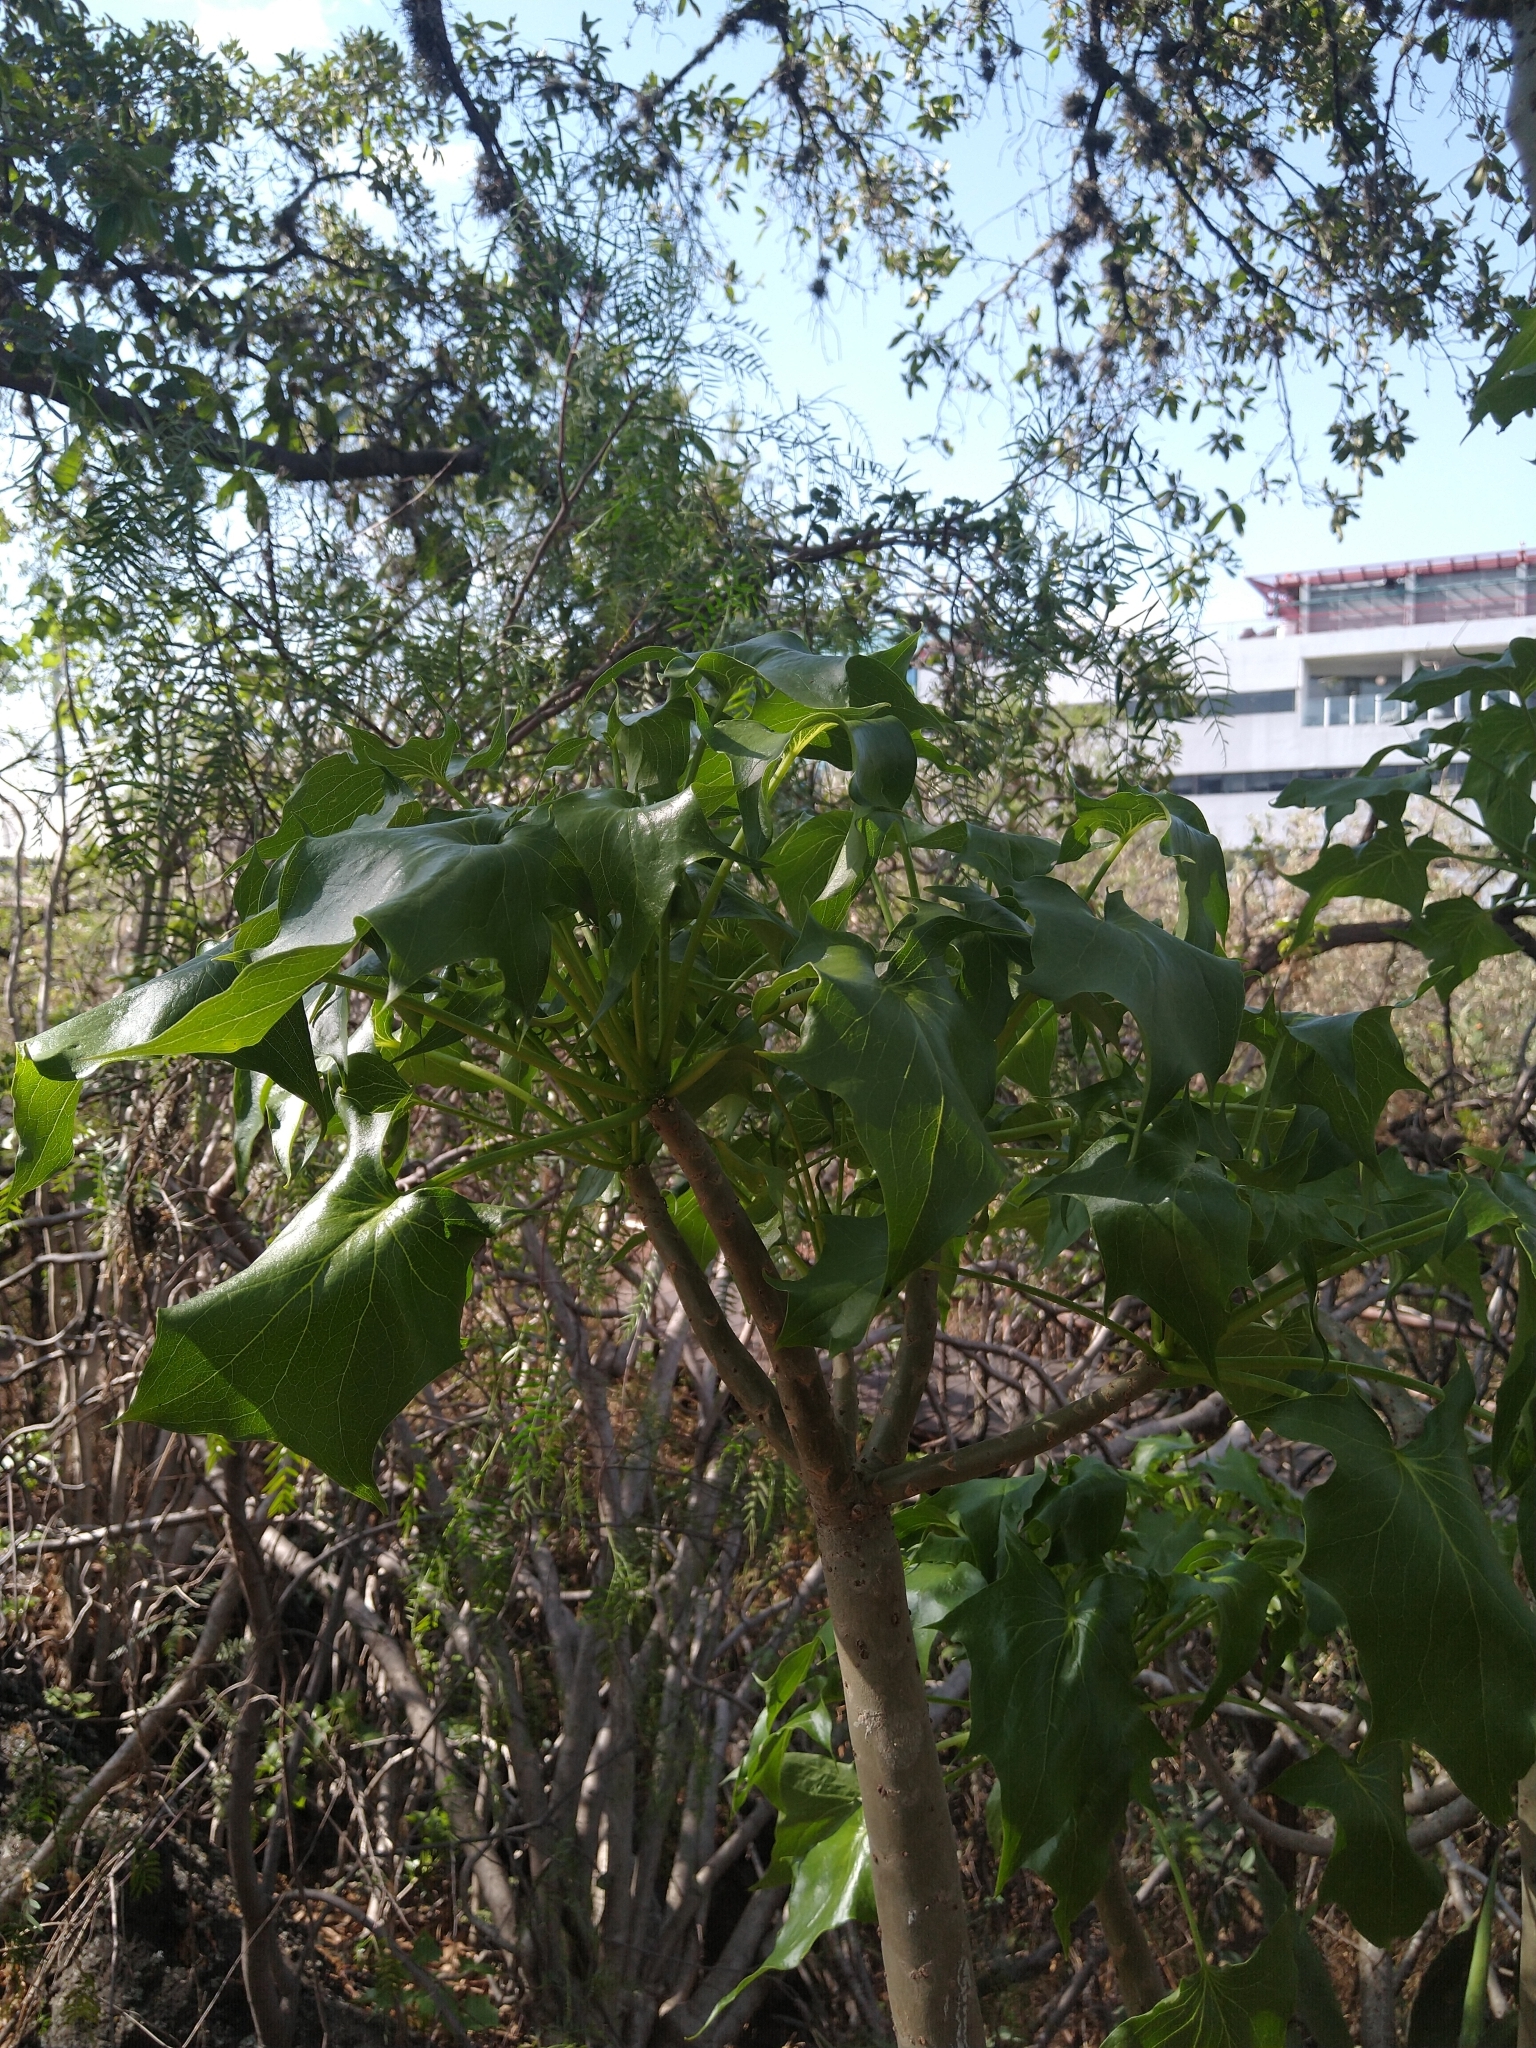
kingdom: Plantae
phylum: Tracheophyta
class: Magnoliopsida
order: Asterales
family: Asteraceae
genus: Pittocaulon
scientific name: Pittocaulon praecox
